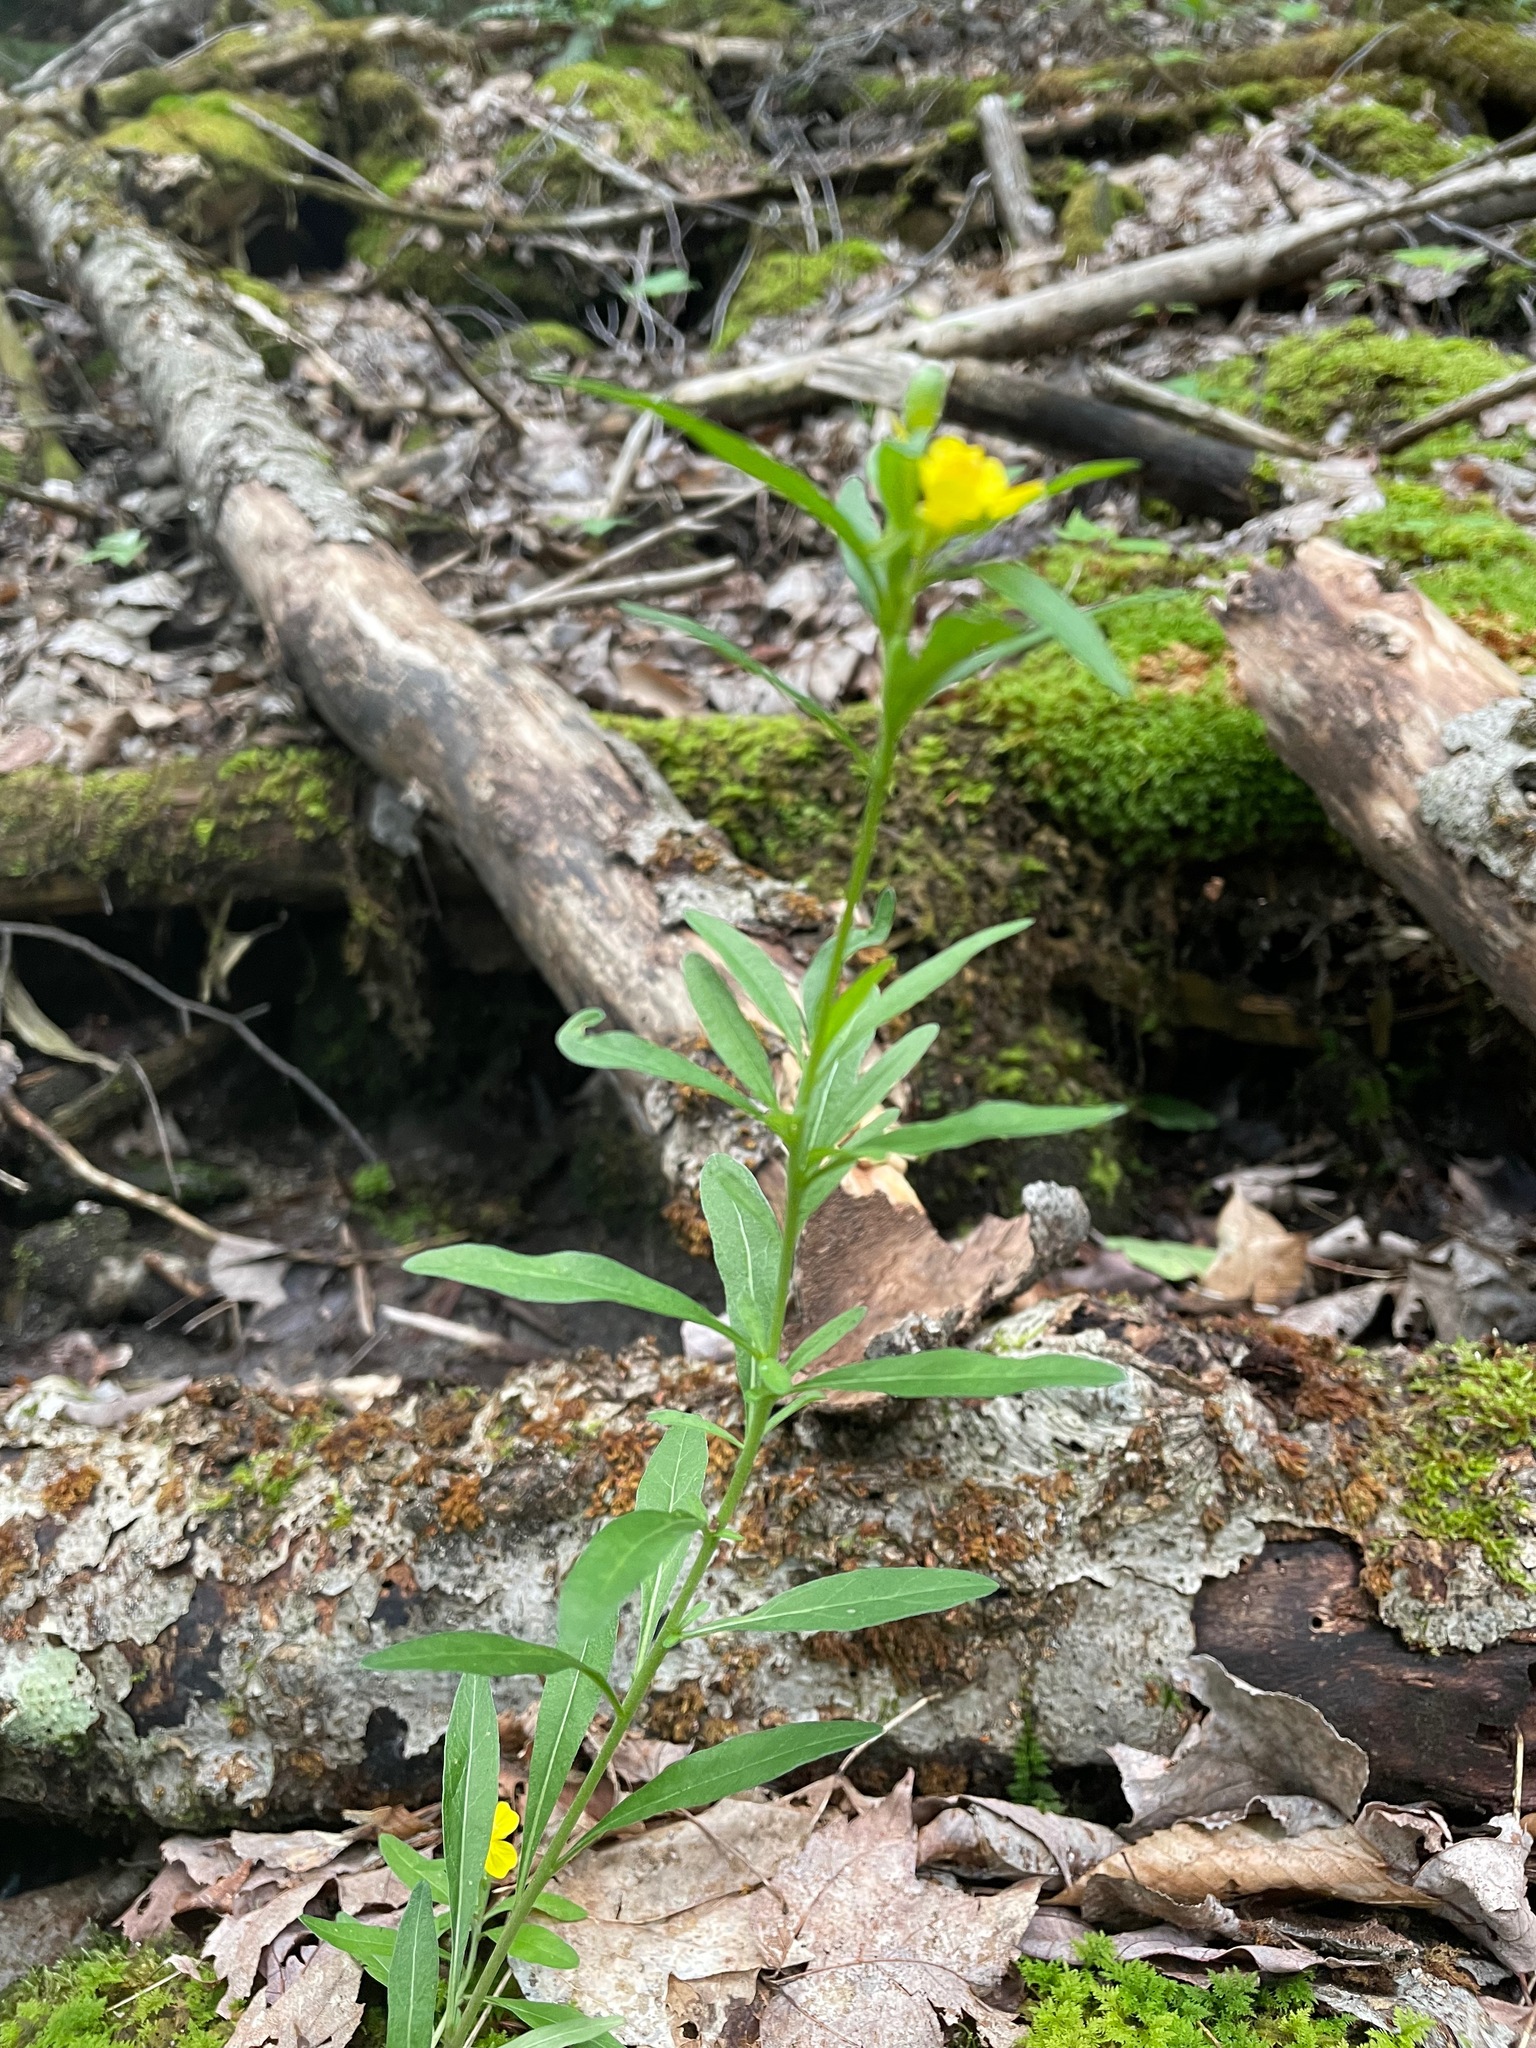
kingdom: Plantae
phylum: Tracheophyta
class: Magnoliopsida
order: Myrtales
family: Onagraceae
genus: Oenothera
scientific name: Oenothera perennis
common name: Small sundrops
